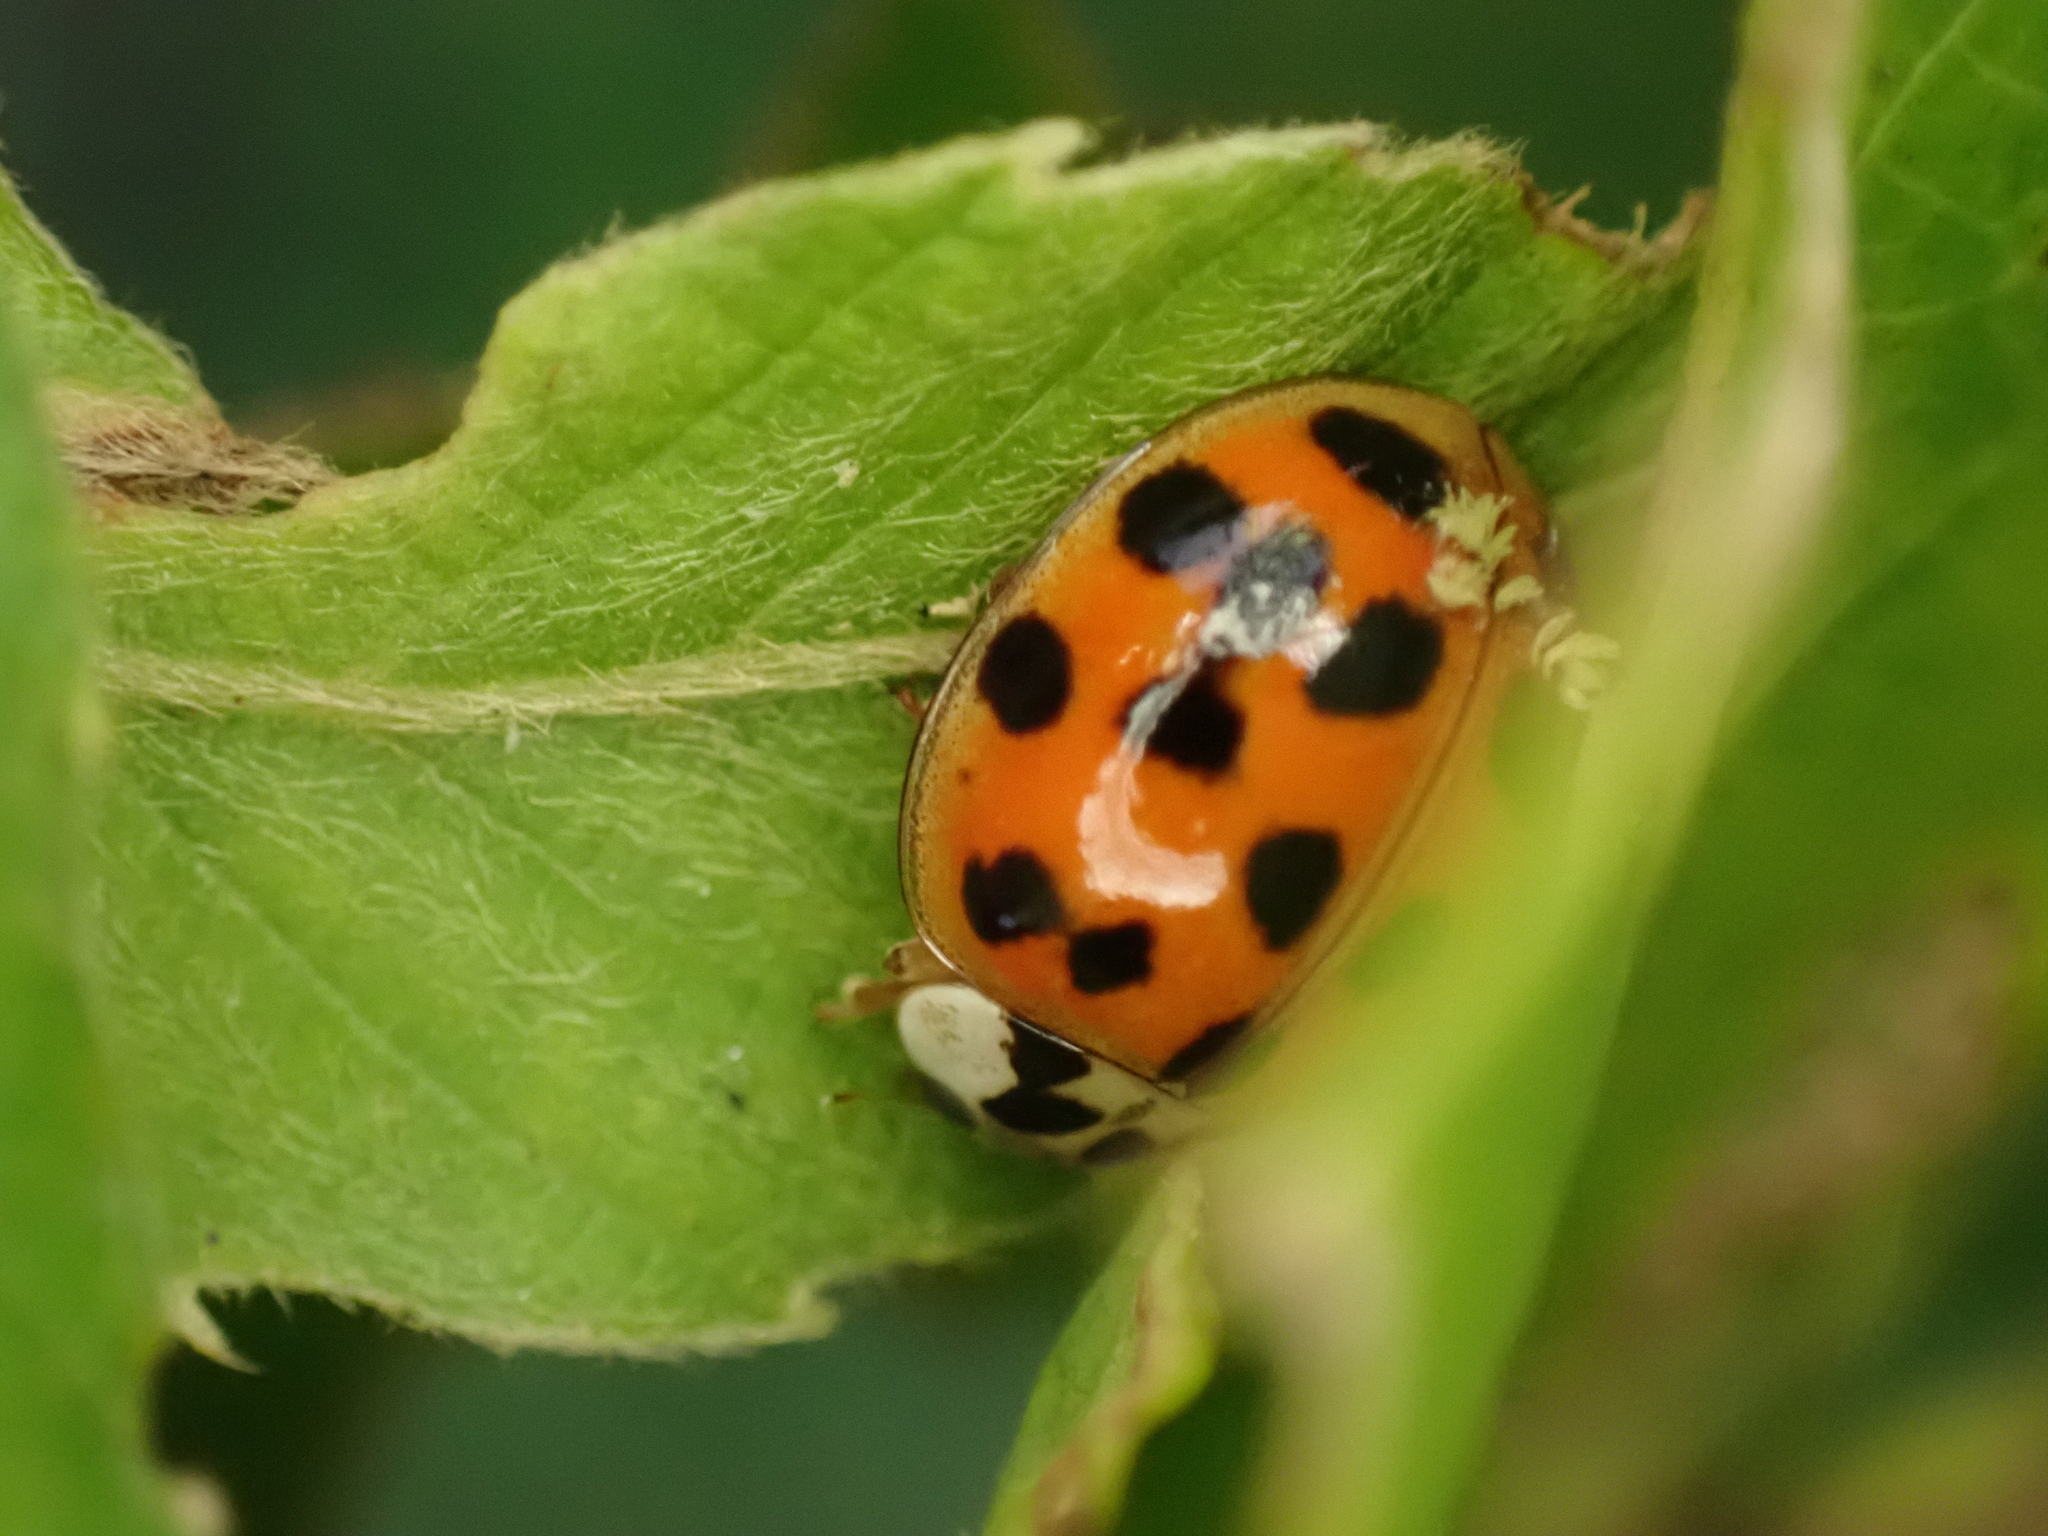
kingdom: Fungi
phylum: Ascomycota
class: Laboulbeniomycetes
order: Laboulbeniales
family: Laboulbeniaceae
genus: Hesperomyces
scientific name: Hesperomyces harmoniae
